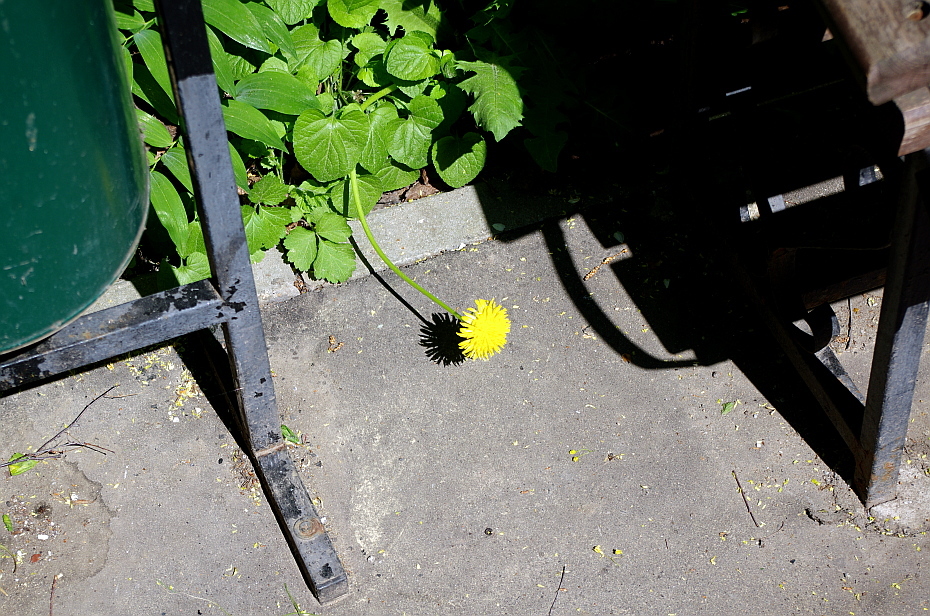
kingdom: Plantae
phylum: Tracheophyta
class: Magnoliopsida
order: Asterales
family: Asteraceae
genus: Taraxacum
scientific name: Taraxacum officinale
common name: Common dandelion
